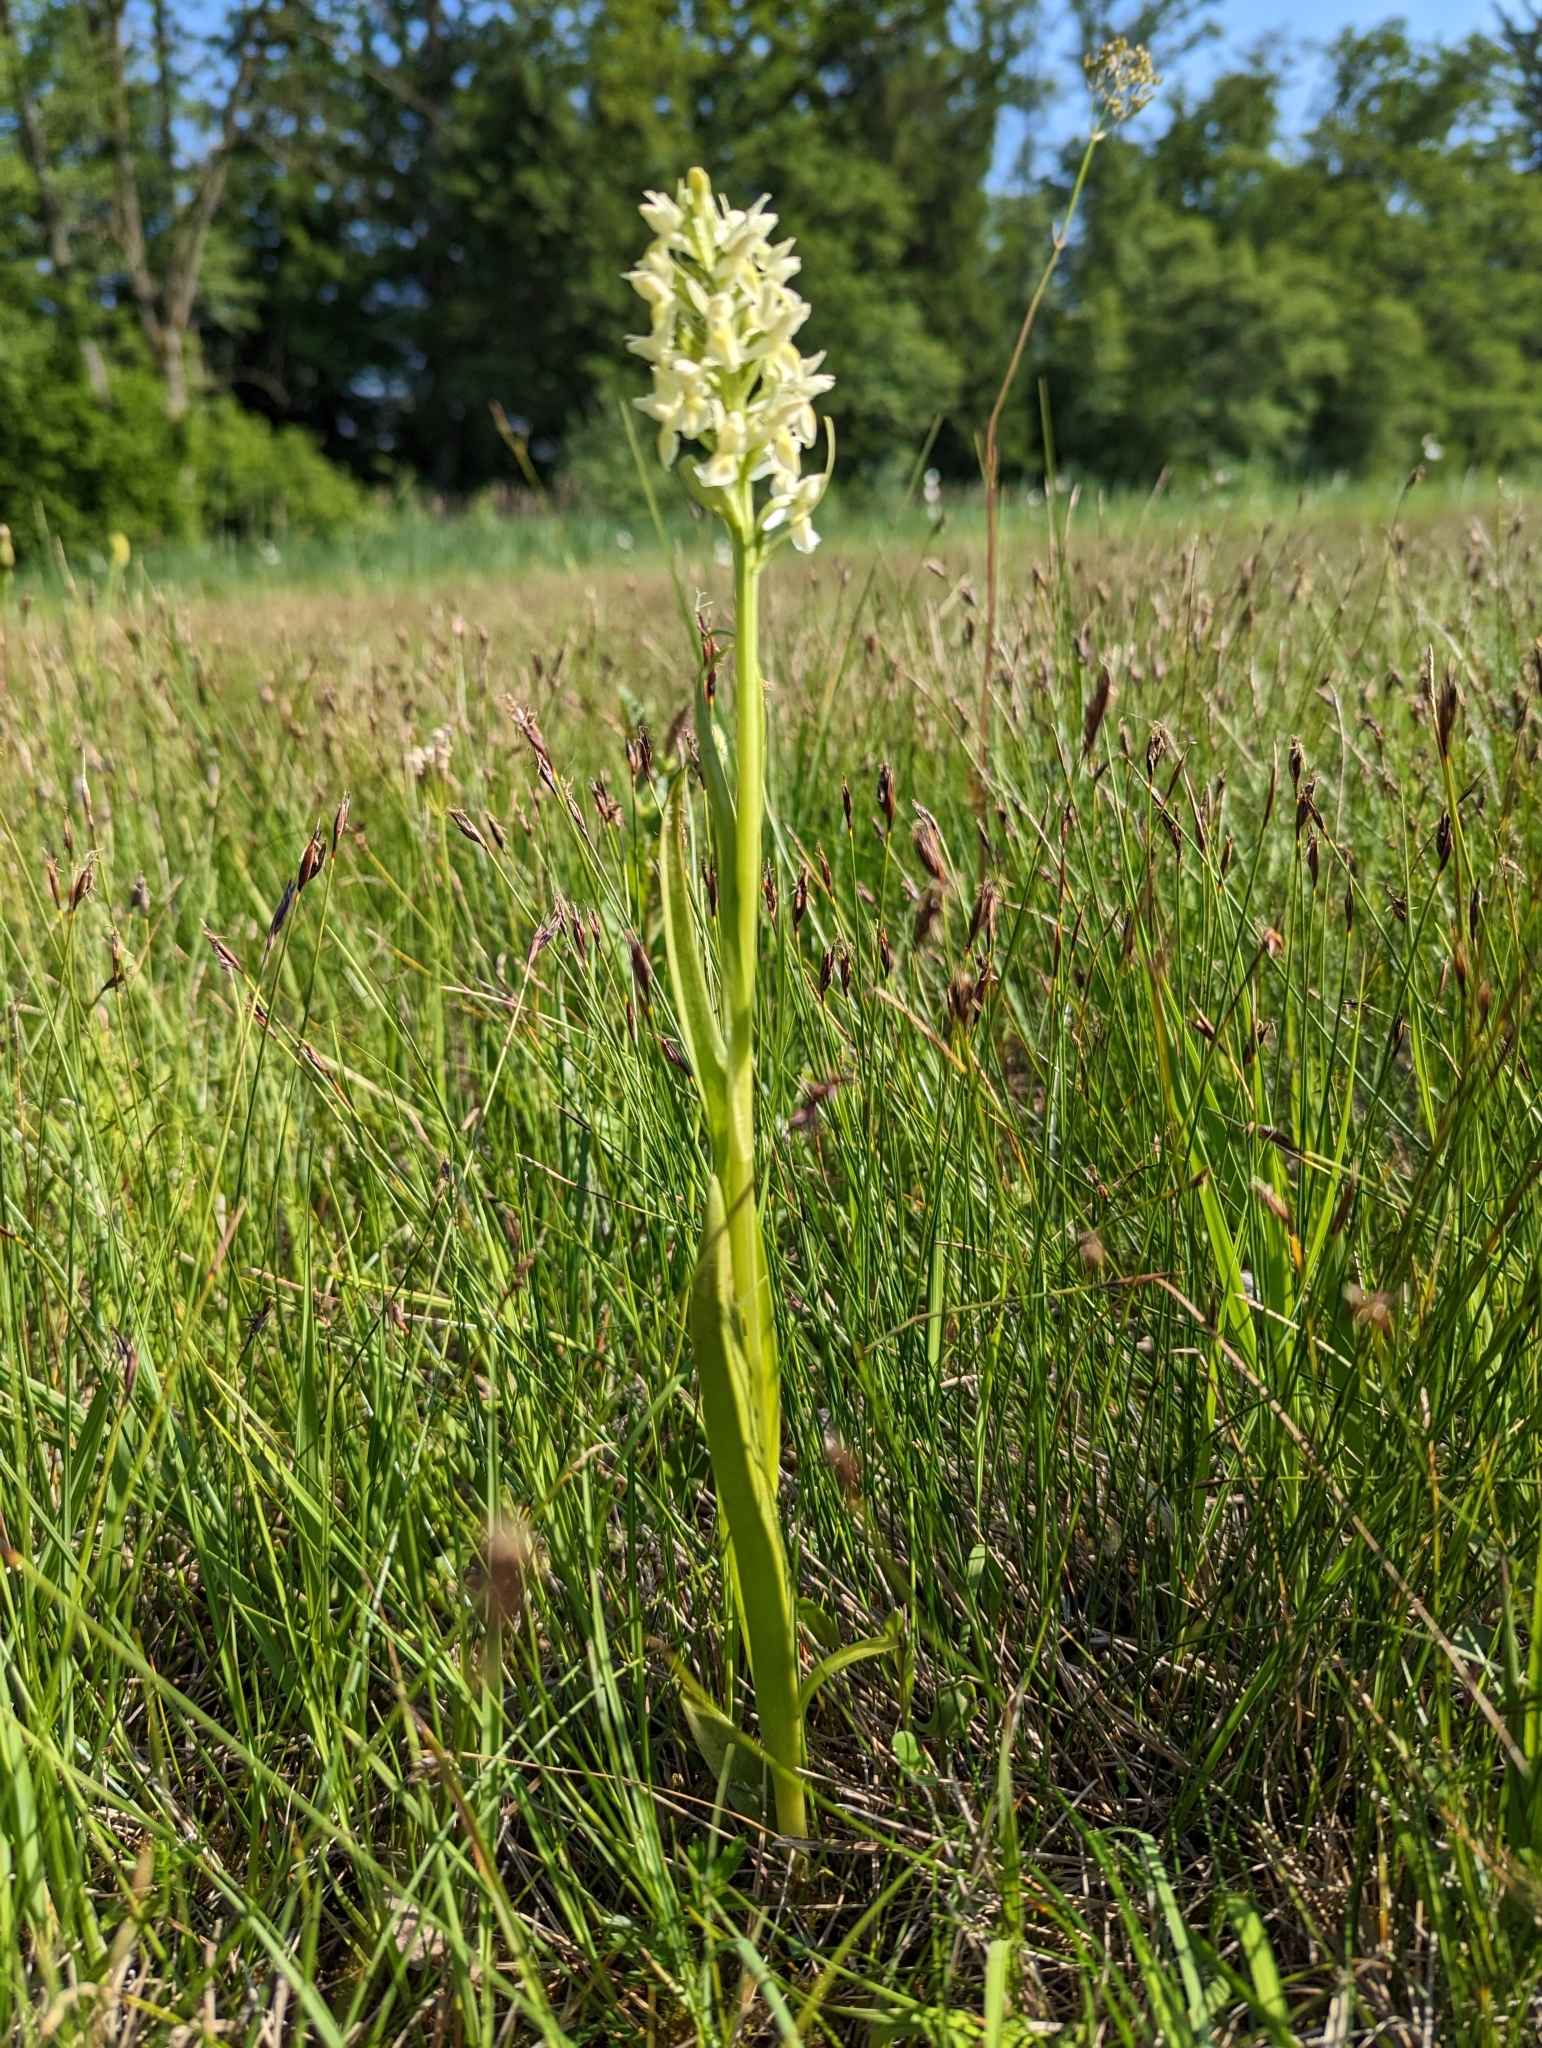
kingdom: Plantae
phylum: Tracheophyta
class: Liliopsida
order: Asparagales
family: Orchidaceae
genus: Dactylorhiza
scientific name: Dactylorhiza incarnata
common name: Early marsh-orchid
